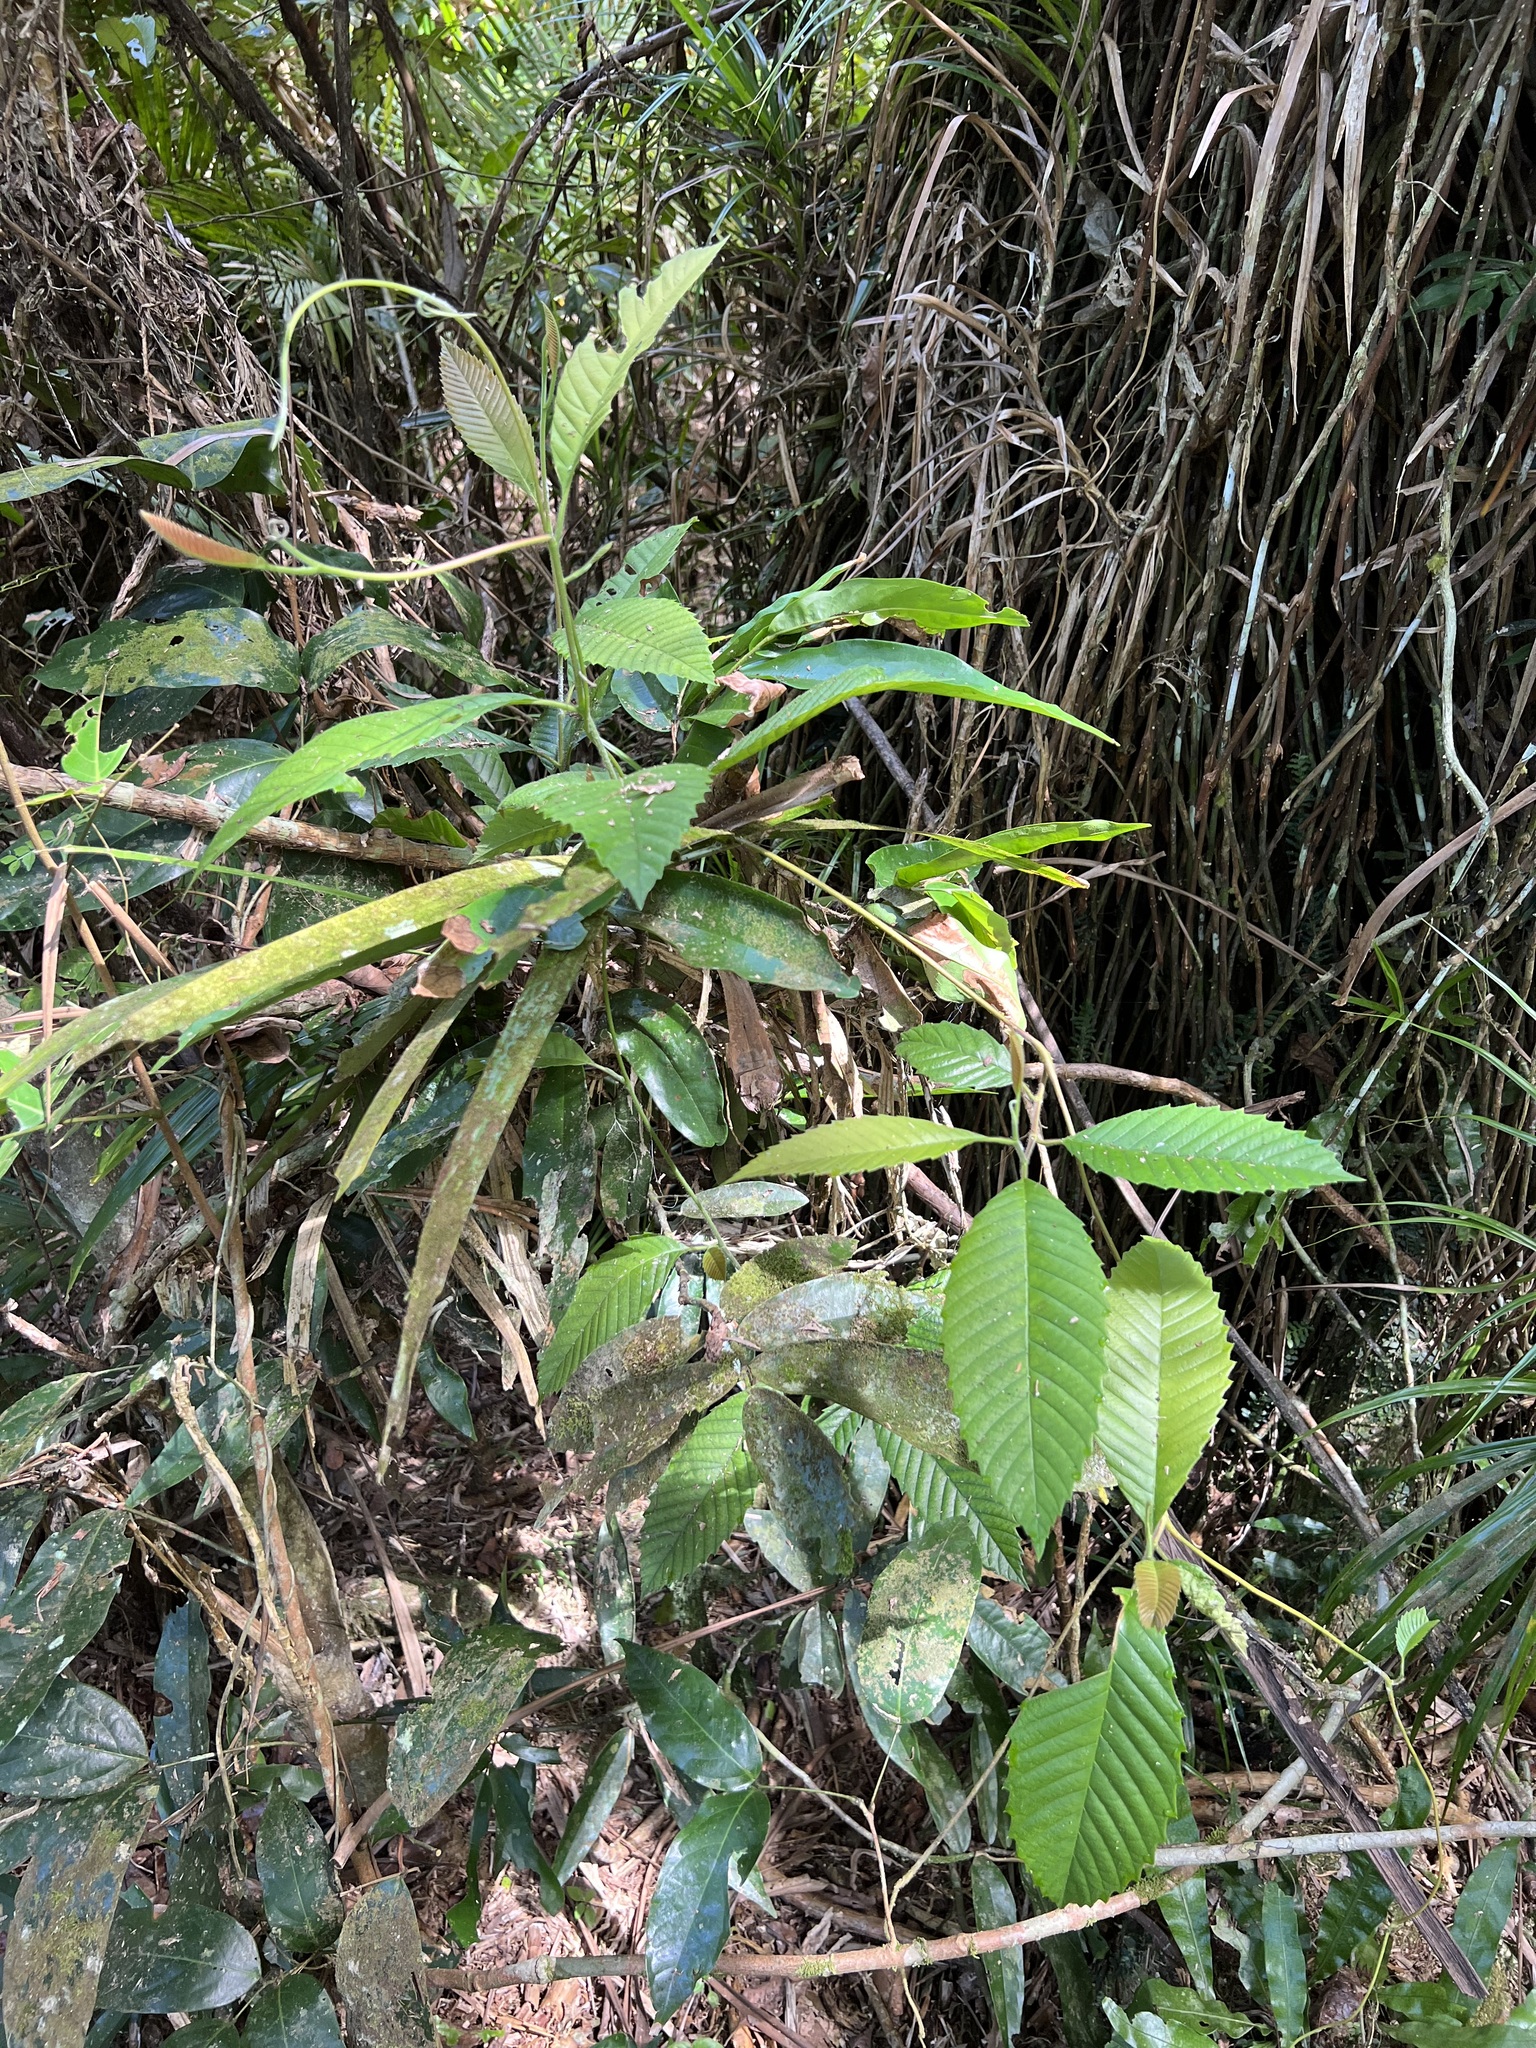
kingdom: Plantae
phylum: Tracheophyta
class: Magnoliopsida
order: Dilleniales
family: Dilleniaceae
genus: Tetracera
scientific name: Tetracera nordtiana
